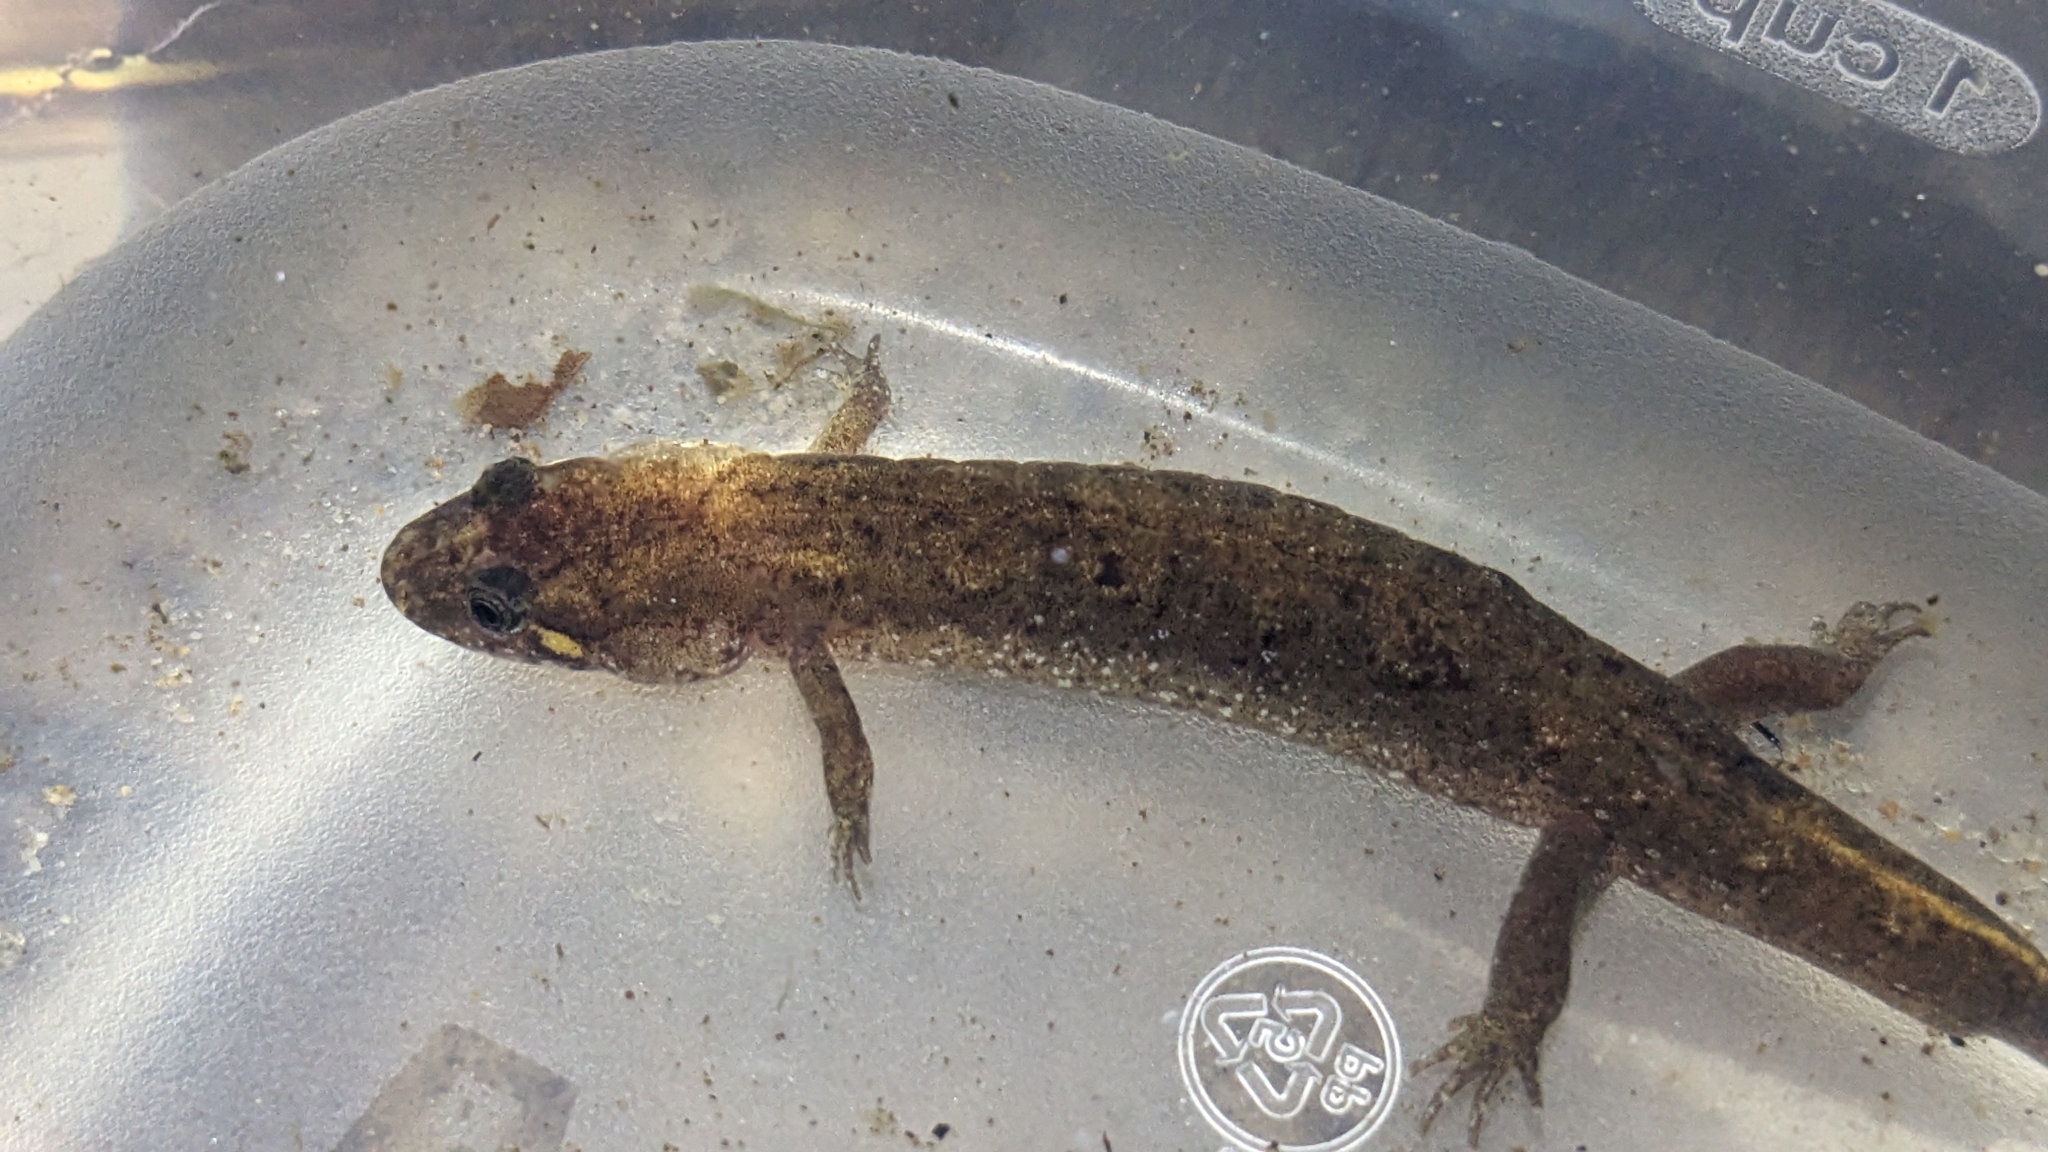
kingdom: Animalia
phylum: Chordata
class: Amphibia
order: Caudata
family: Plethodontidae
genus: Desmognathus
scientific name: Desmognathus
